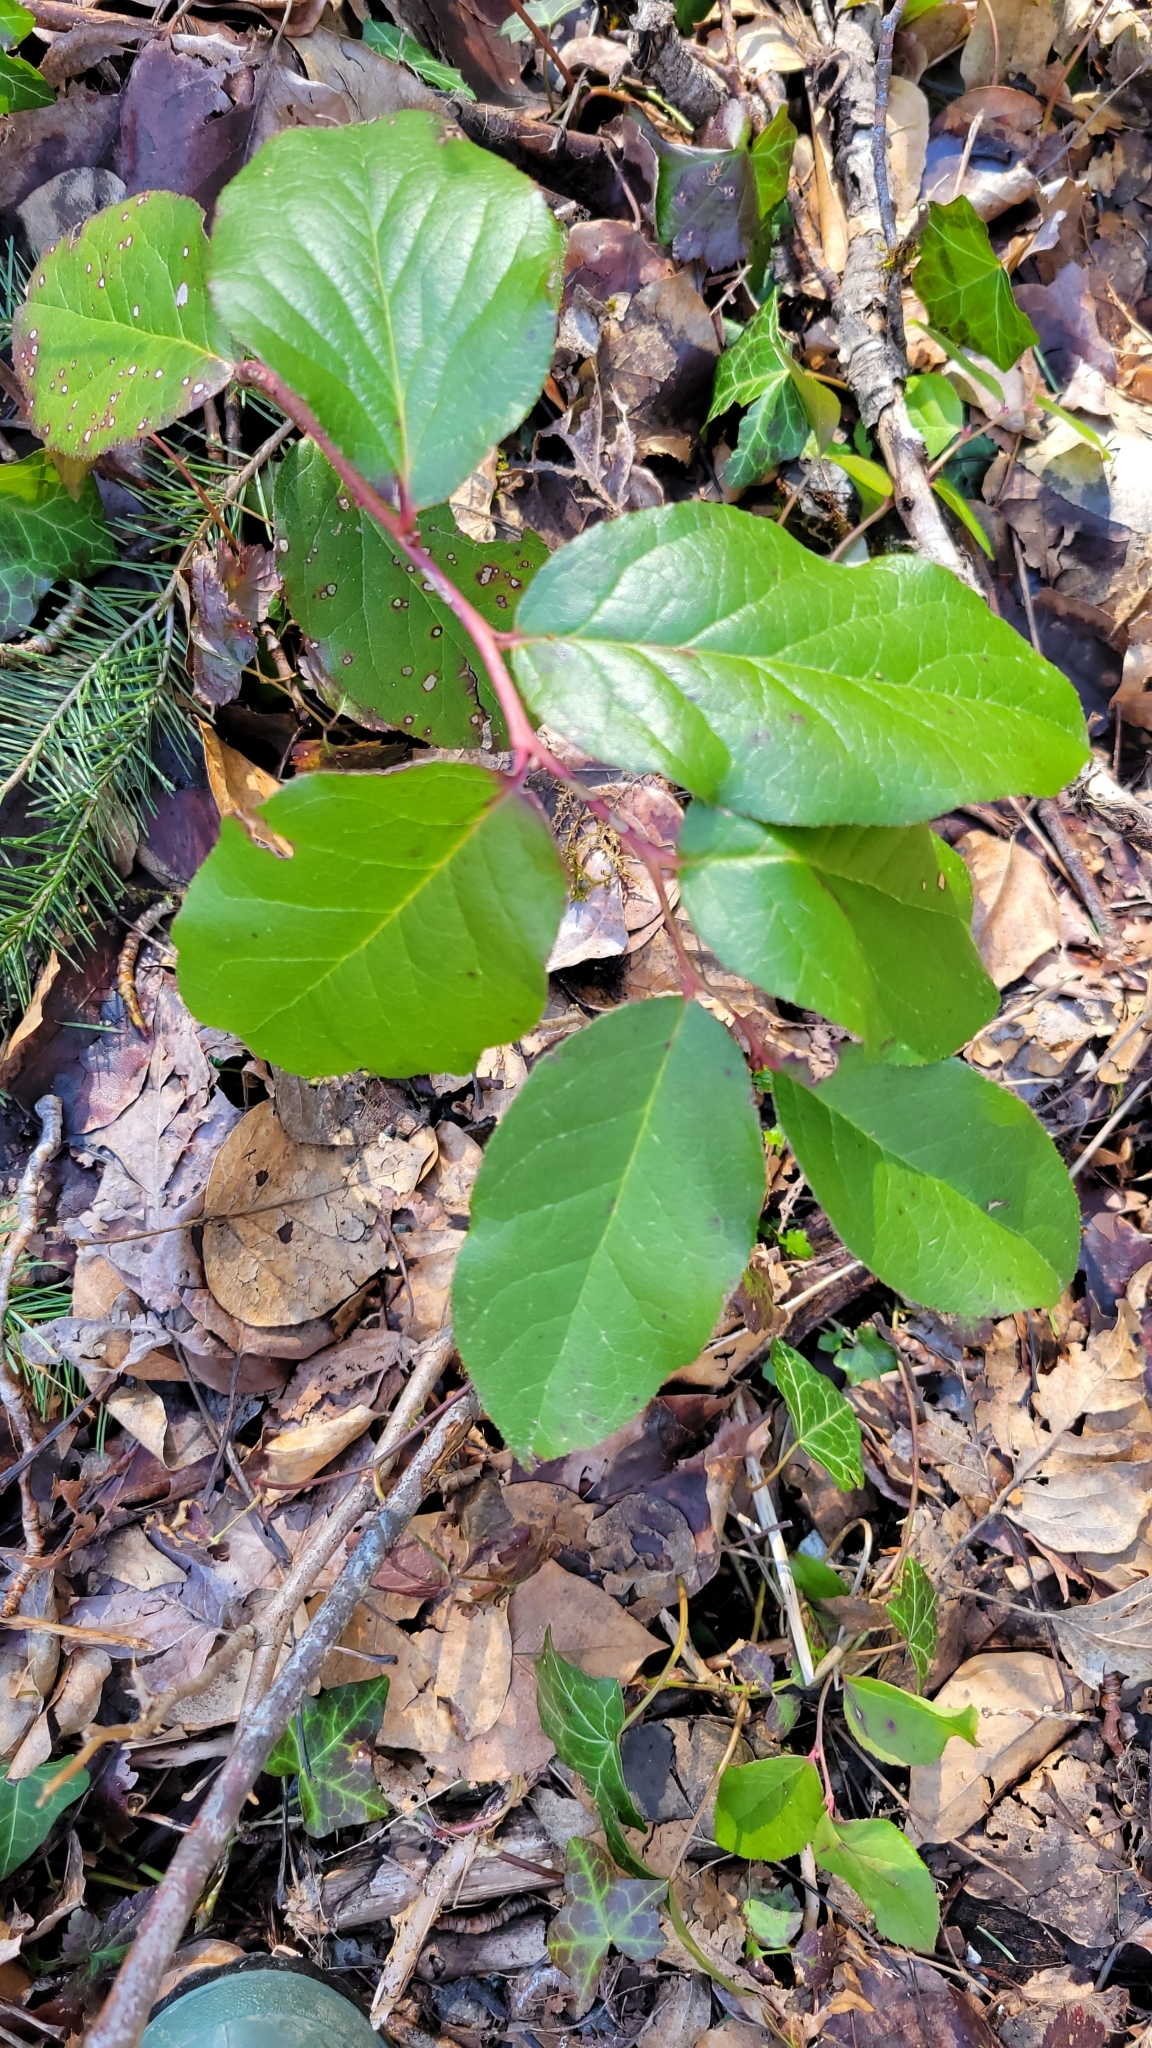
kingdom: Plantae
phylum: Tracheophyta
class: Magnoliopsida
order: Ericales
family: Ericaceae
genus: Gaultheria
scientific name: Gaultheria shallon
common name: Shallon
